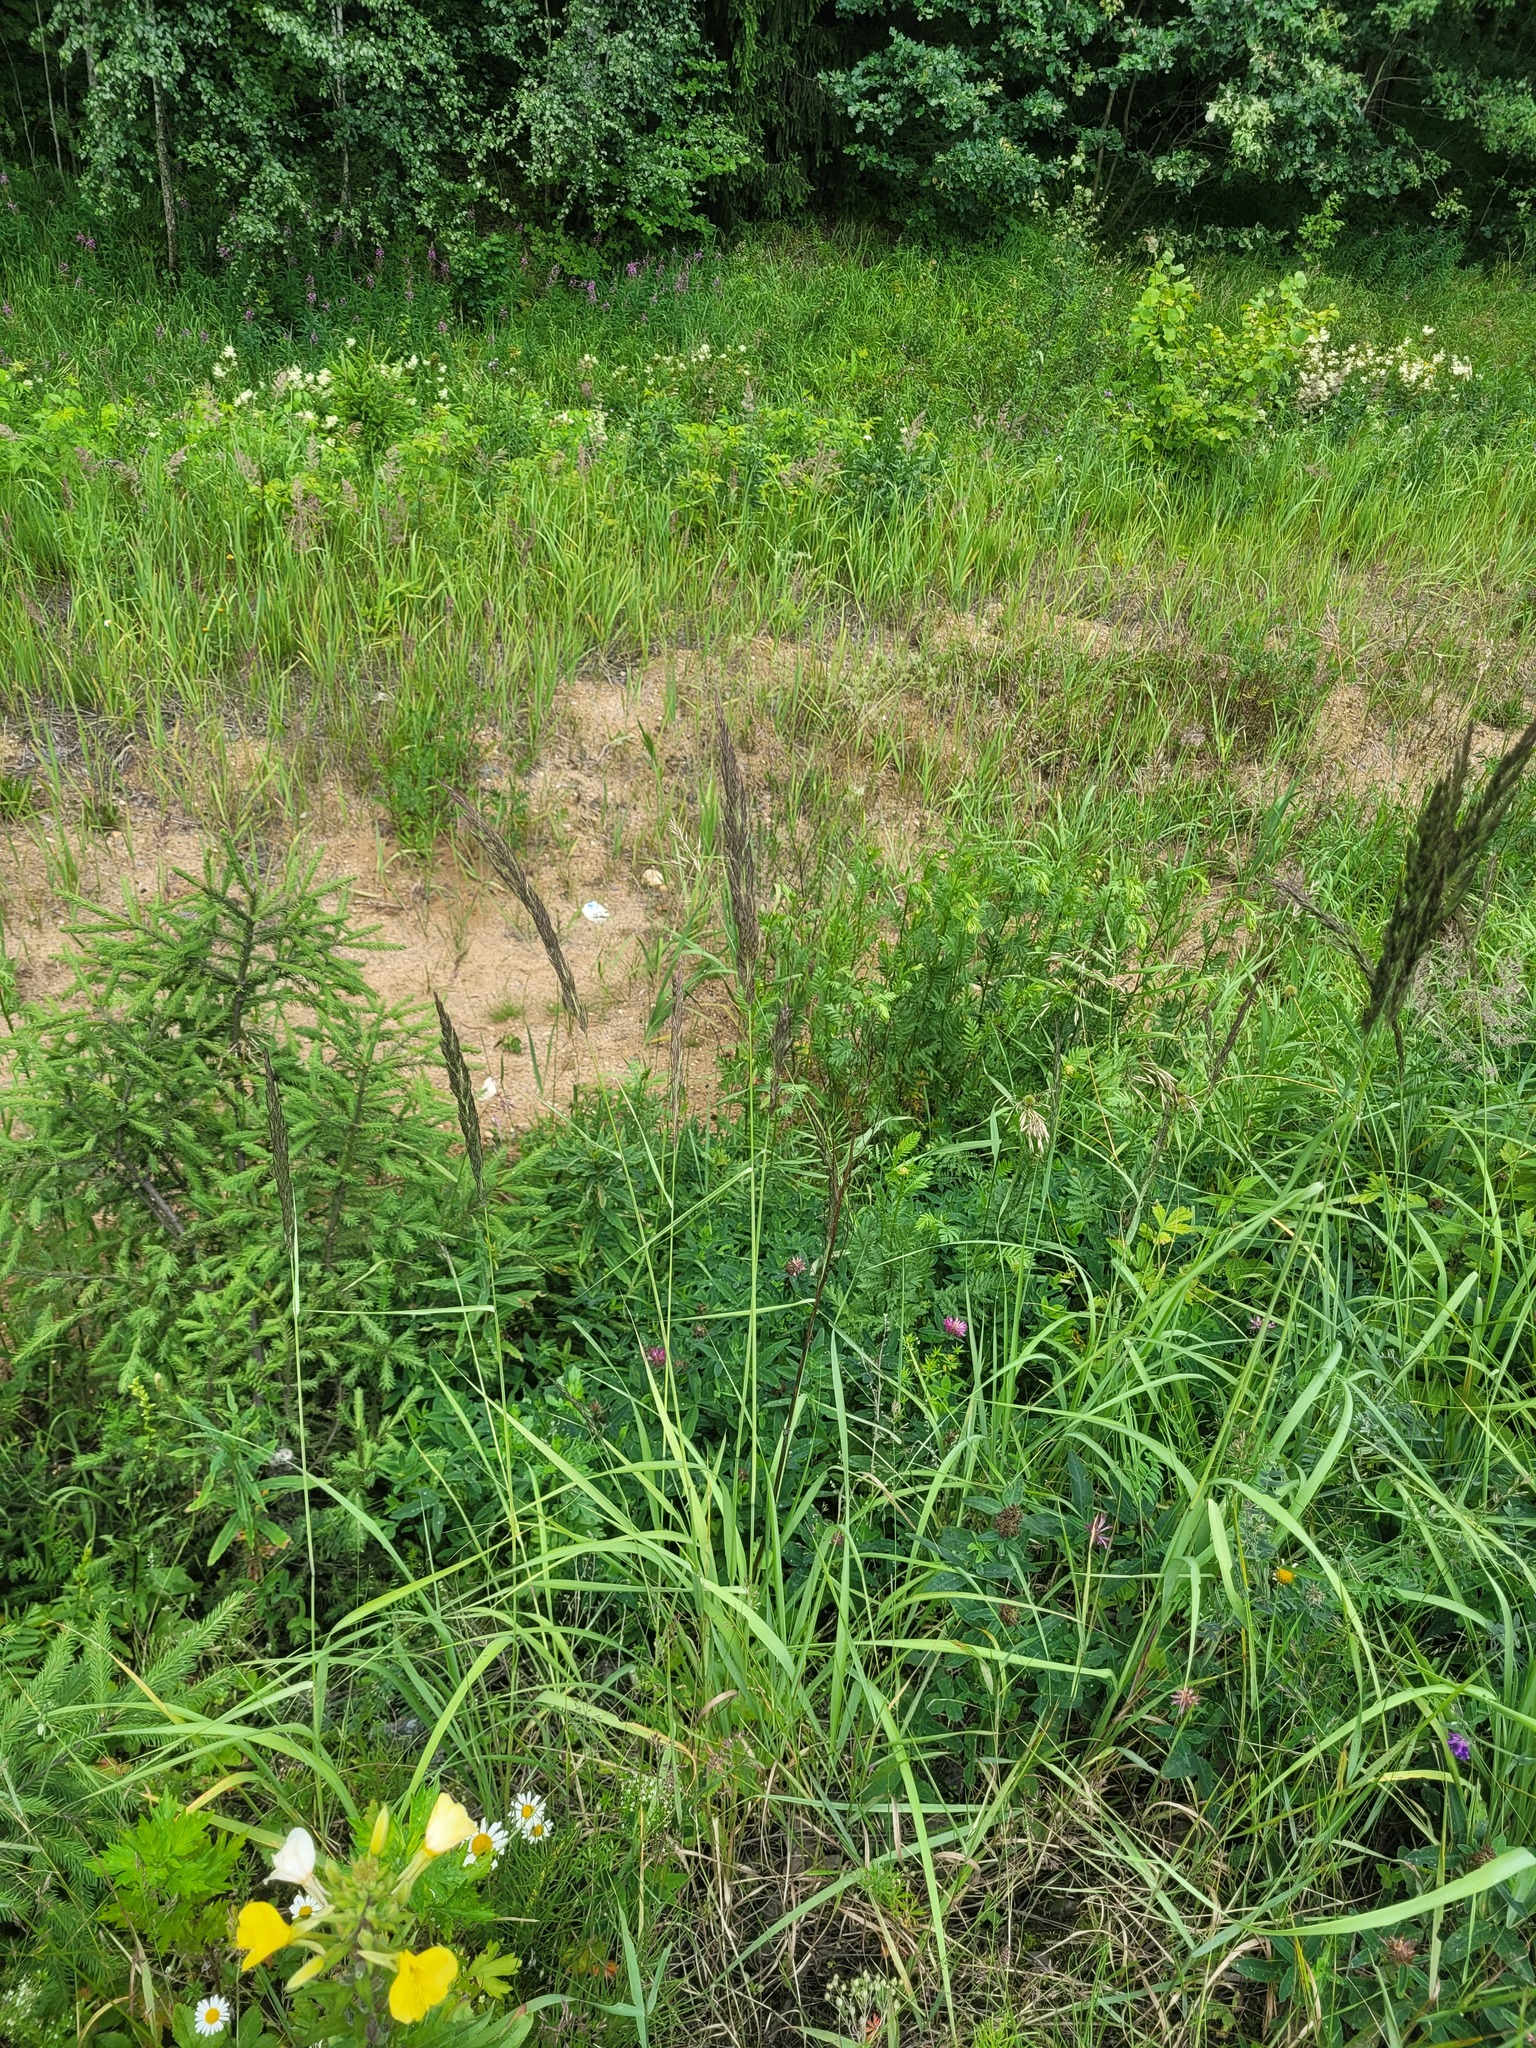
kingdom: Plantae
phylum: Tracheophyta
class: Liliopsida
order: Poales
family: Poaceae
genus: Calamagrostis
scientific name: Calamagrostis epigejos
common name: Wood small-reed
